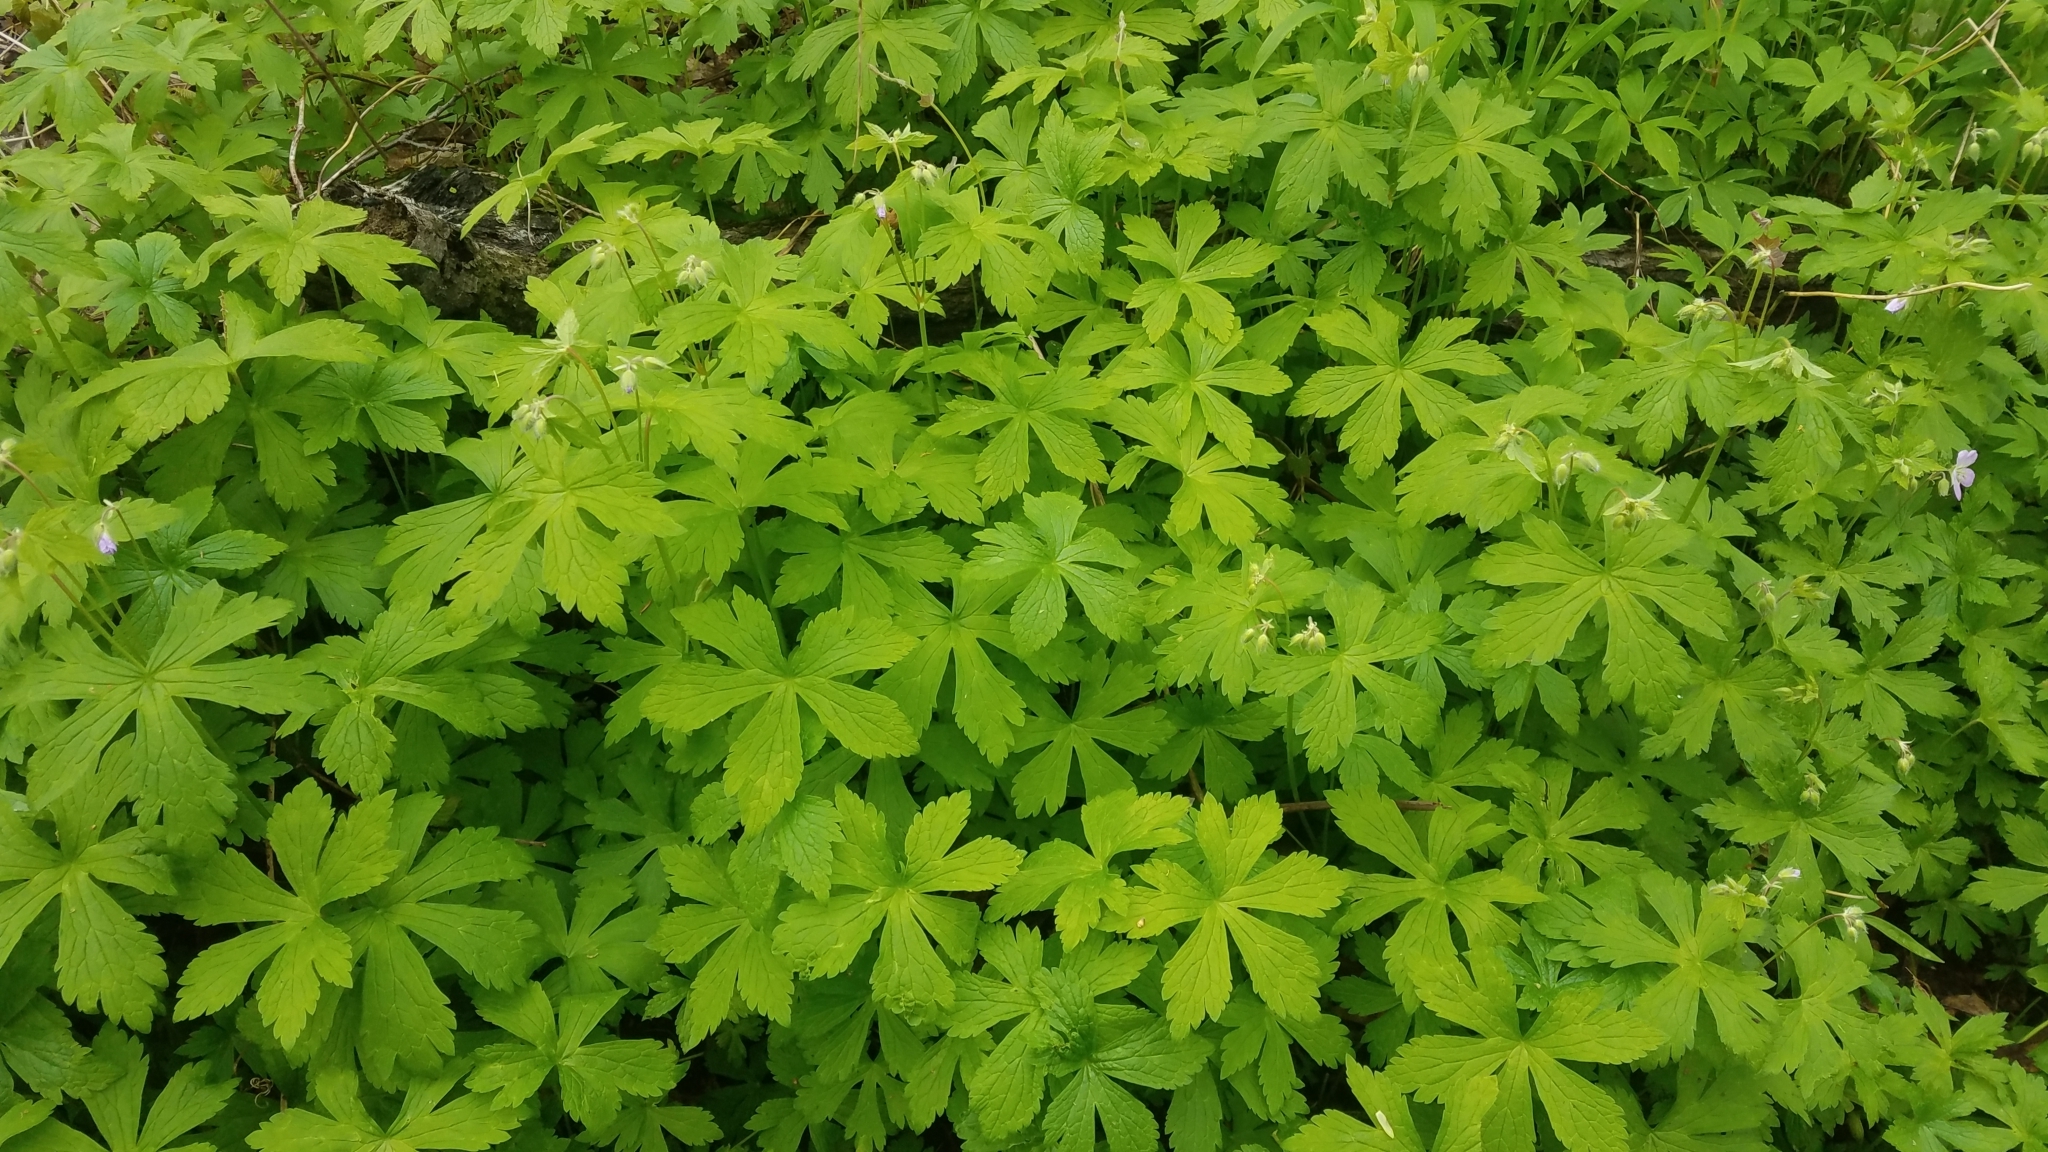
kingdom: Plantae
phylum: Tracheophyta
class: Magnoliopsida
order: Geraniales
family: Geraniaceae
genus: Geranium
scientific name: Geranium maculatum
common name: Spotted geranium
